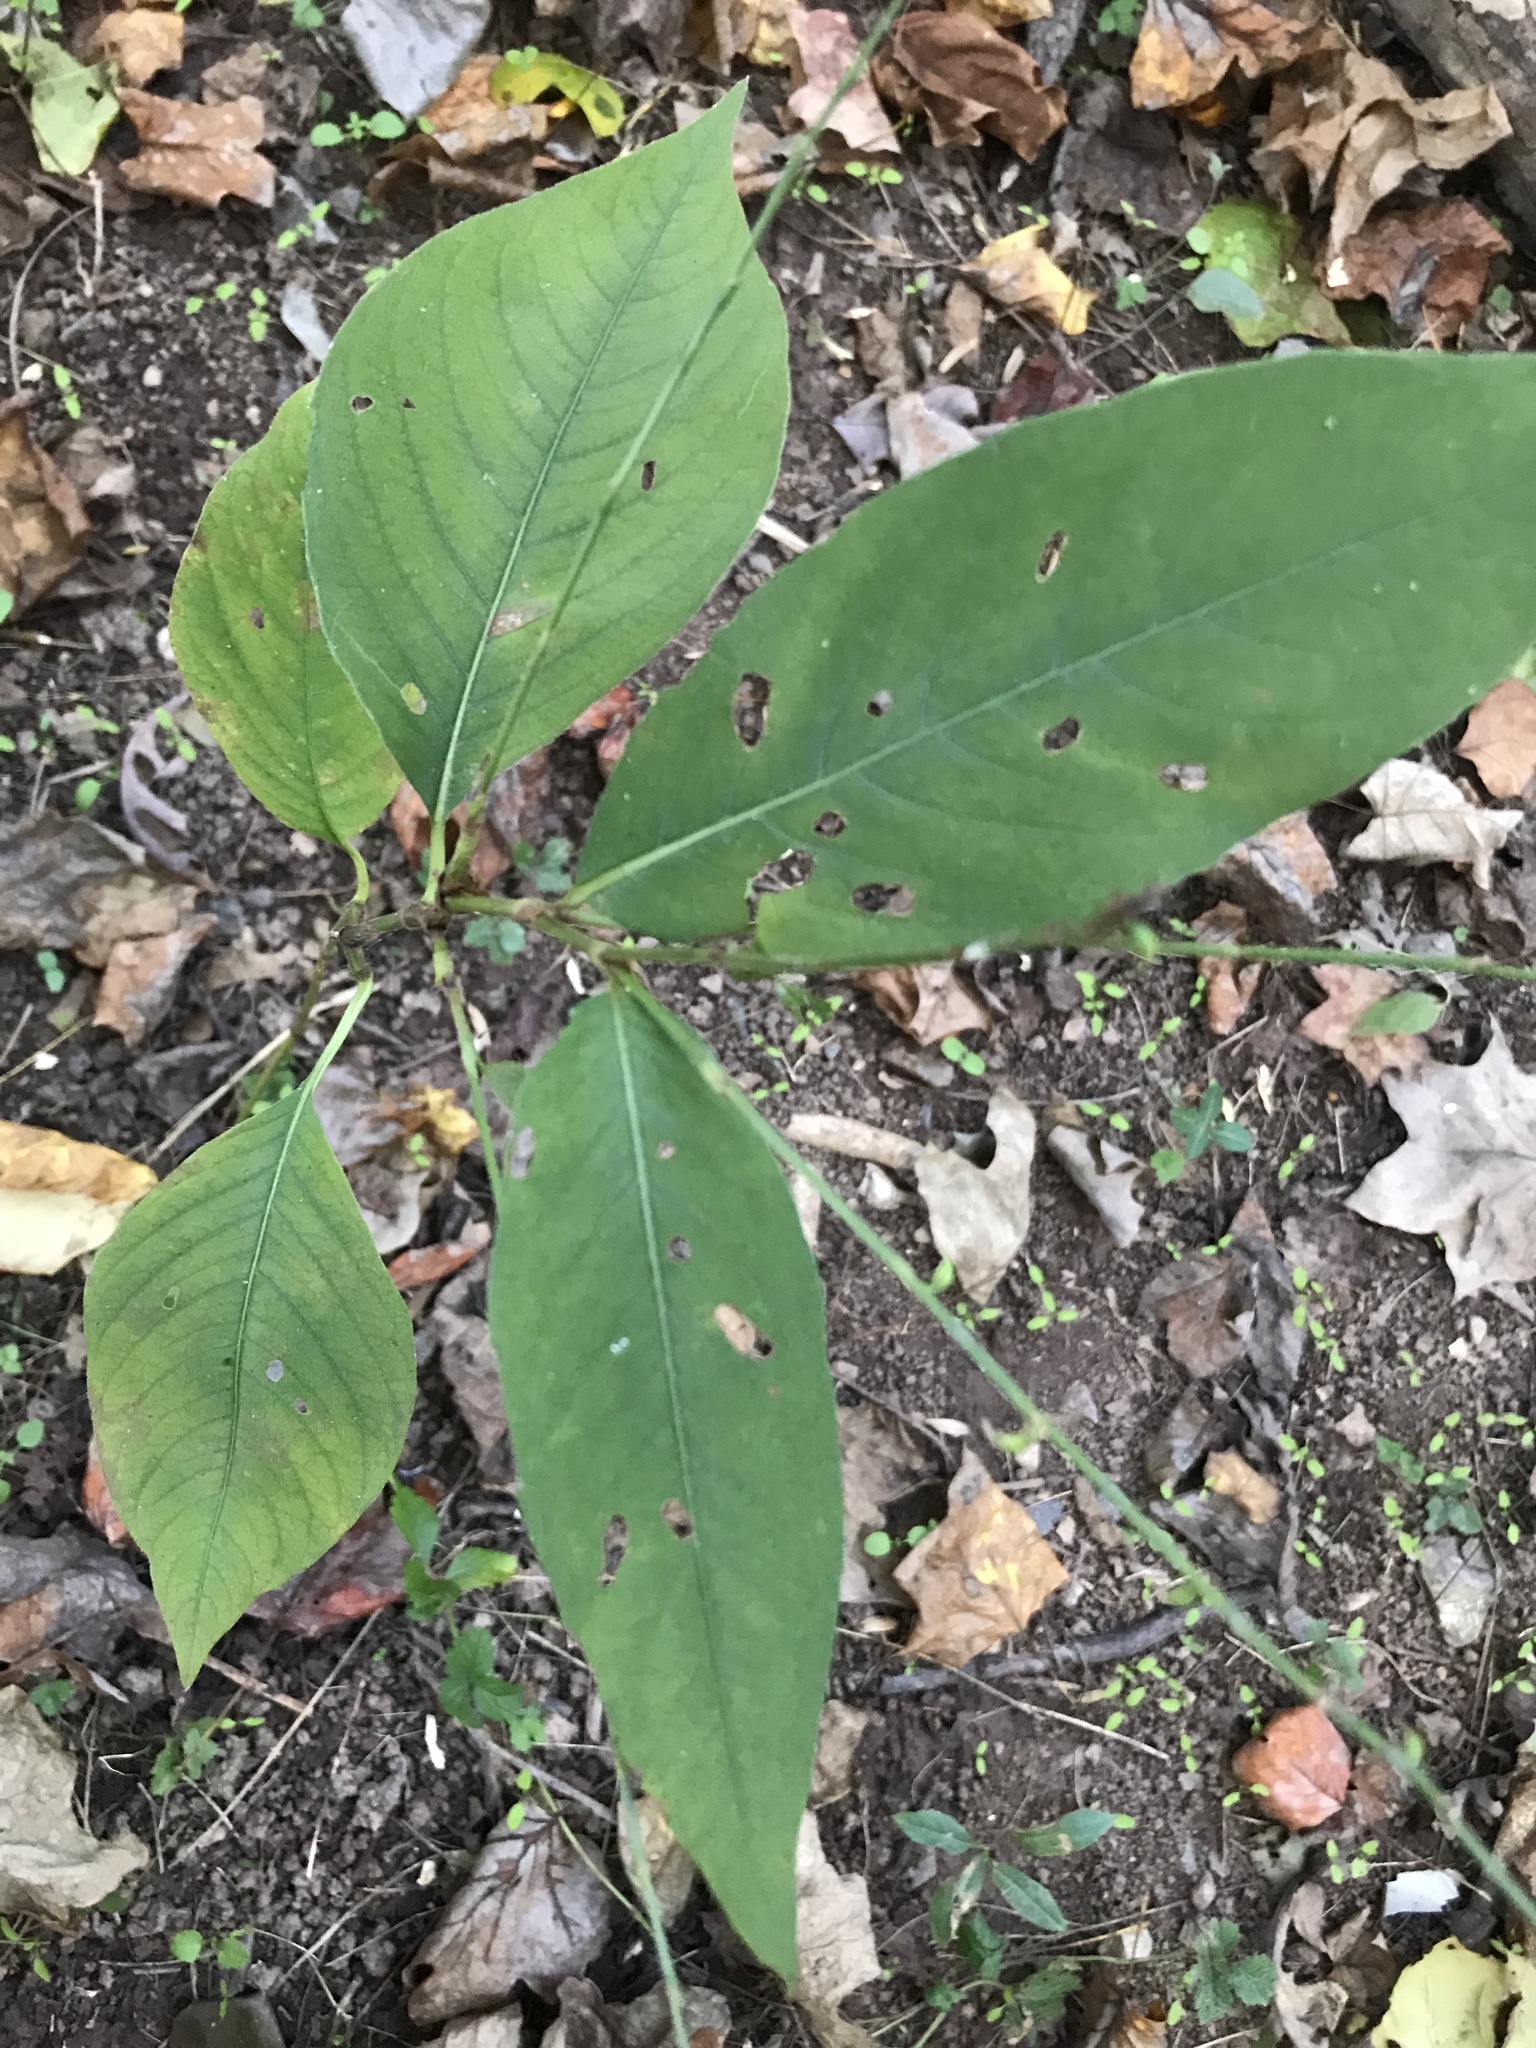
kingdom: Plantae
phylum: Tracheophyta
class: Magnoliopsida
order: Caryophyllales
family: Polygonaceae
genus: Persicaria
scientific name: Persicaria virginiana
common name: Jumpseed
